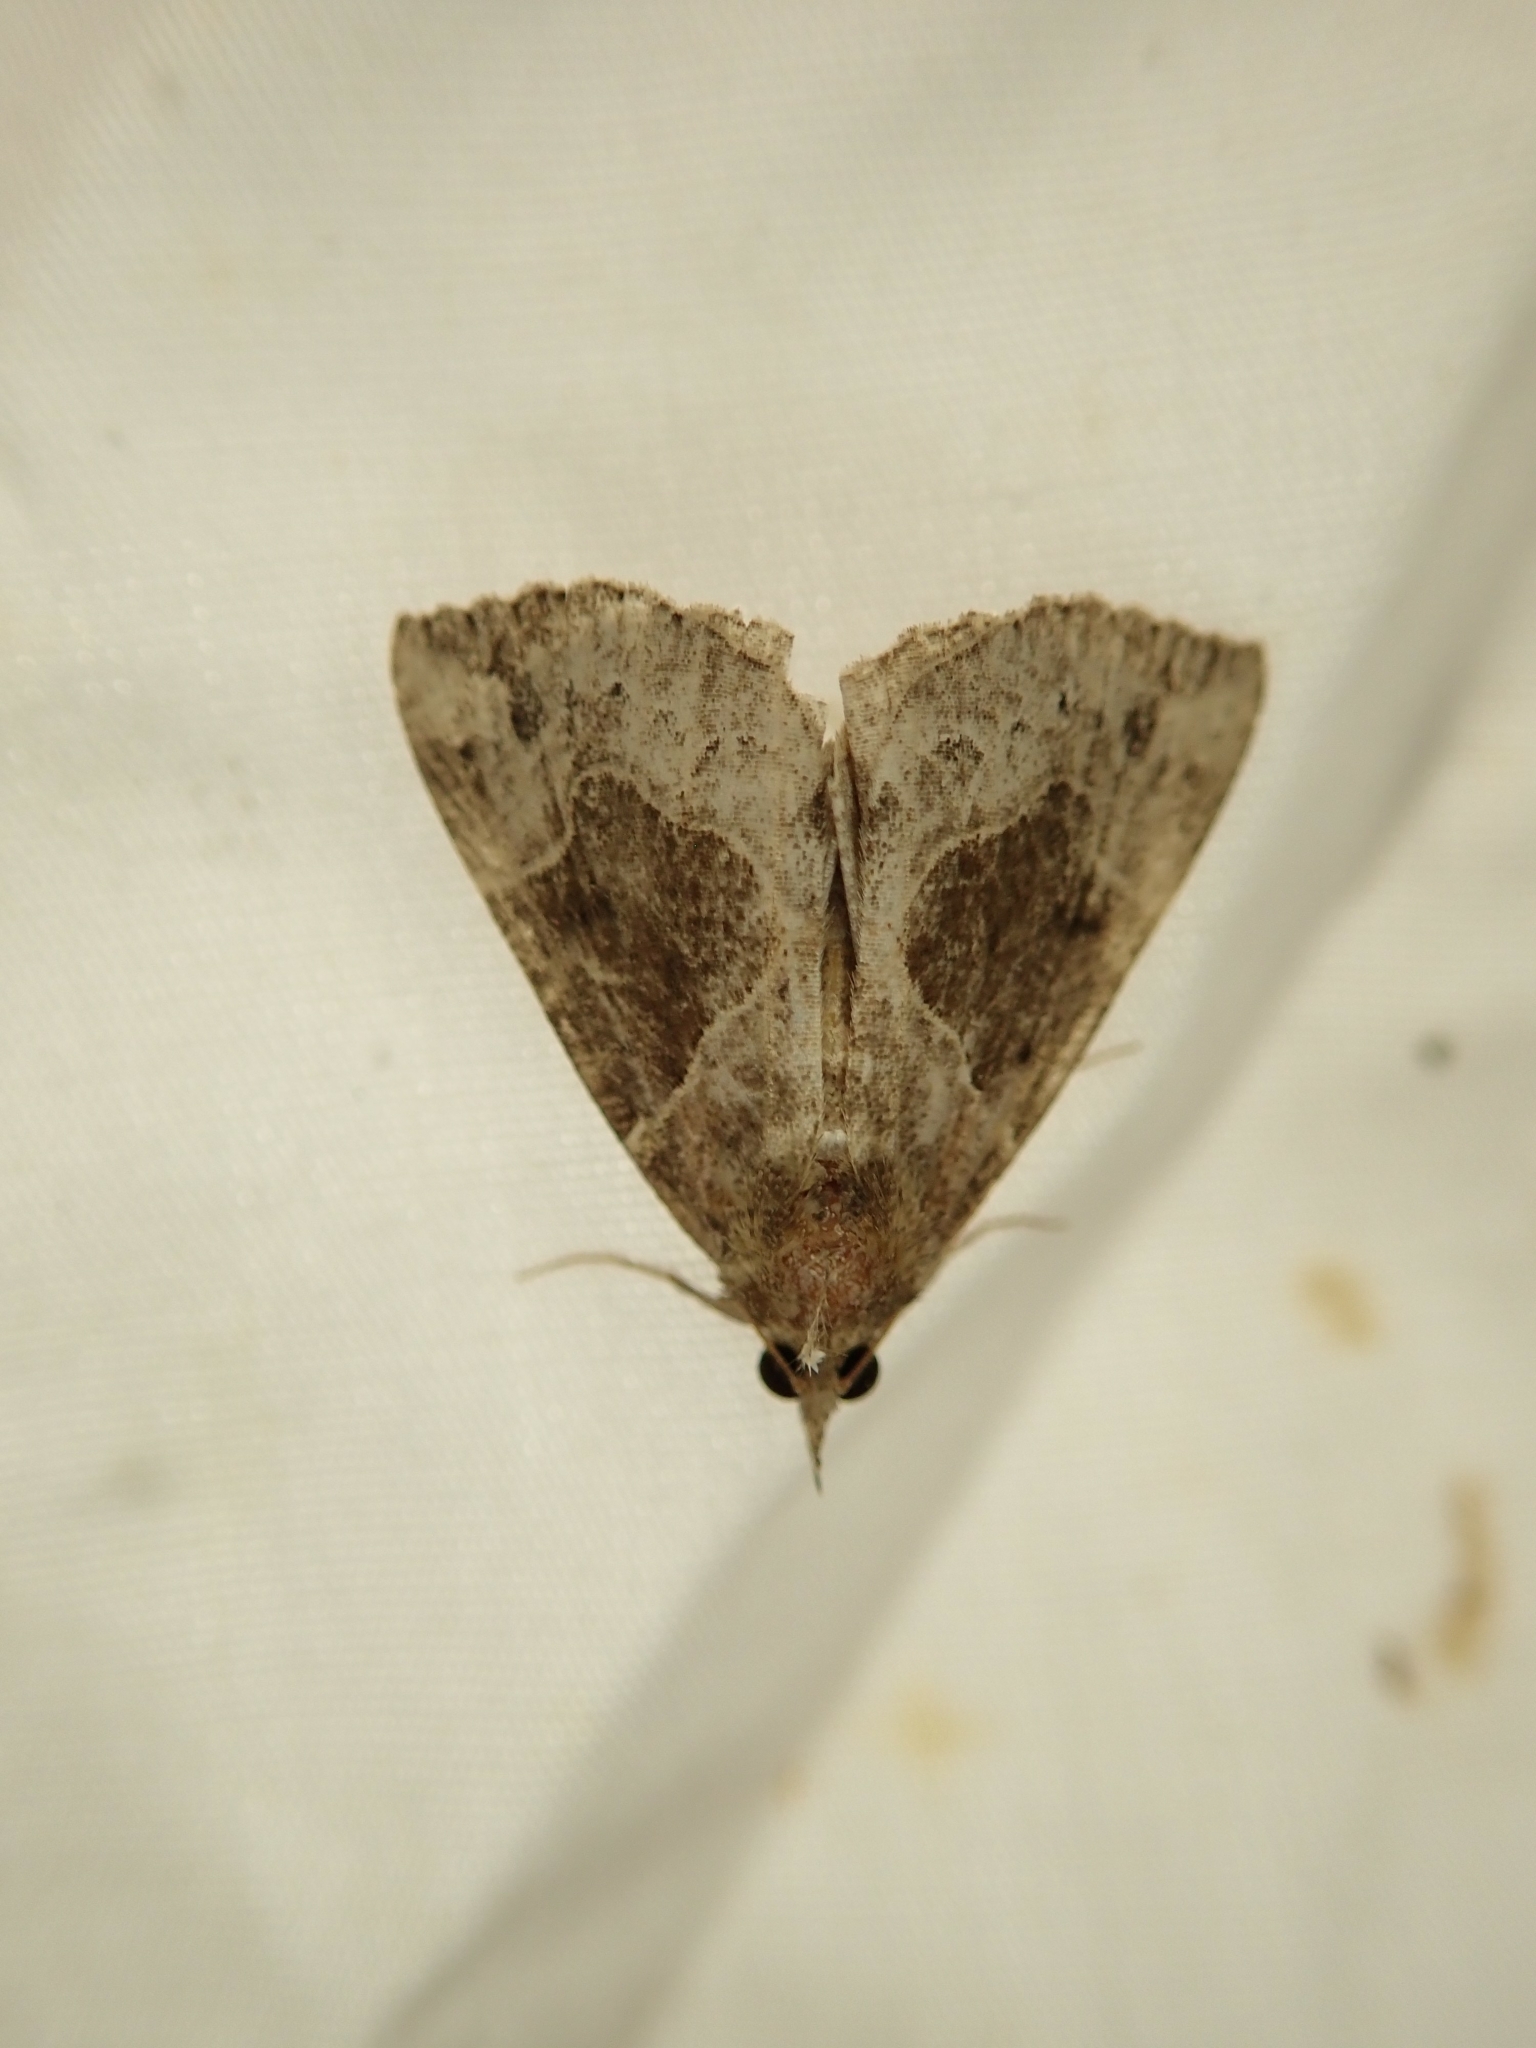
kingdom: Animalia
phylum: Arthropoda
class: Insecta
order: Lepidoptera
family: Erebidae
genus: Hypena
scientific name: Hypena manalis
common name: Flowing-line bomolocha moth
